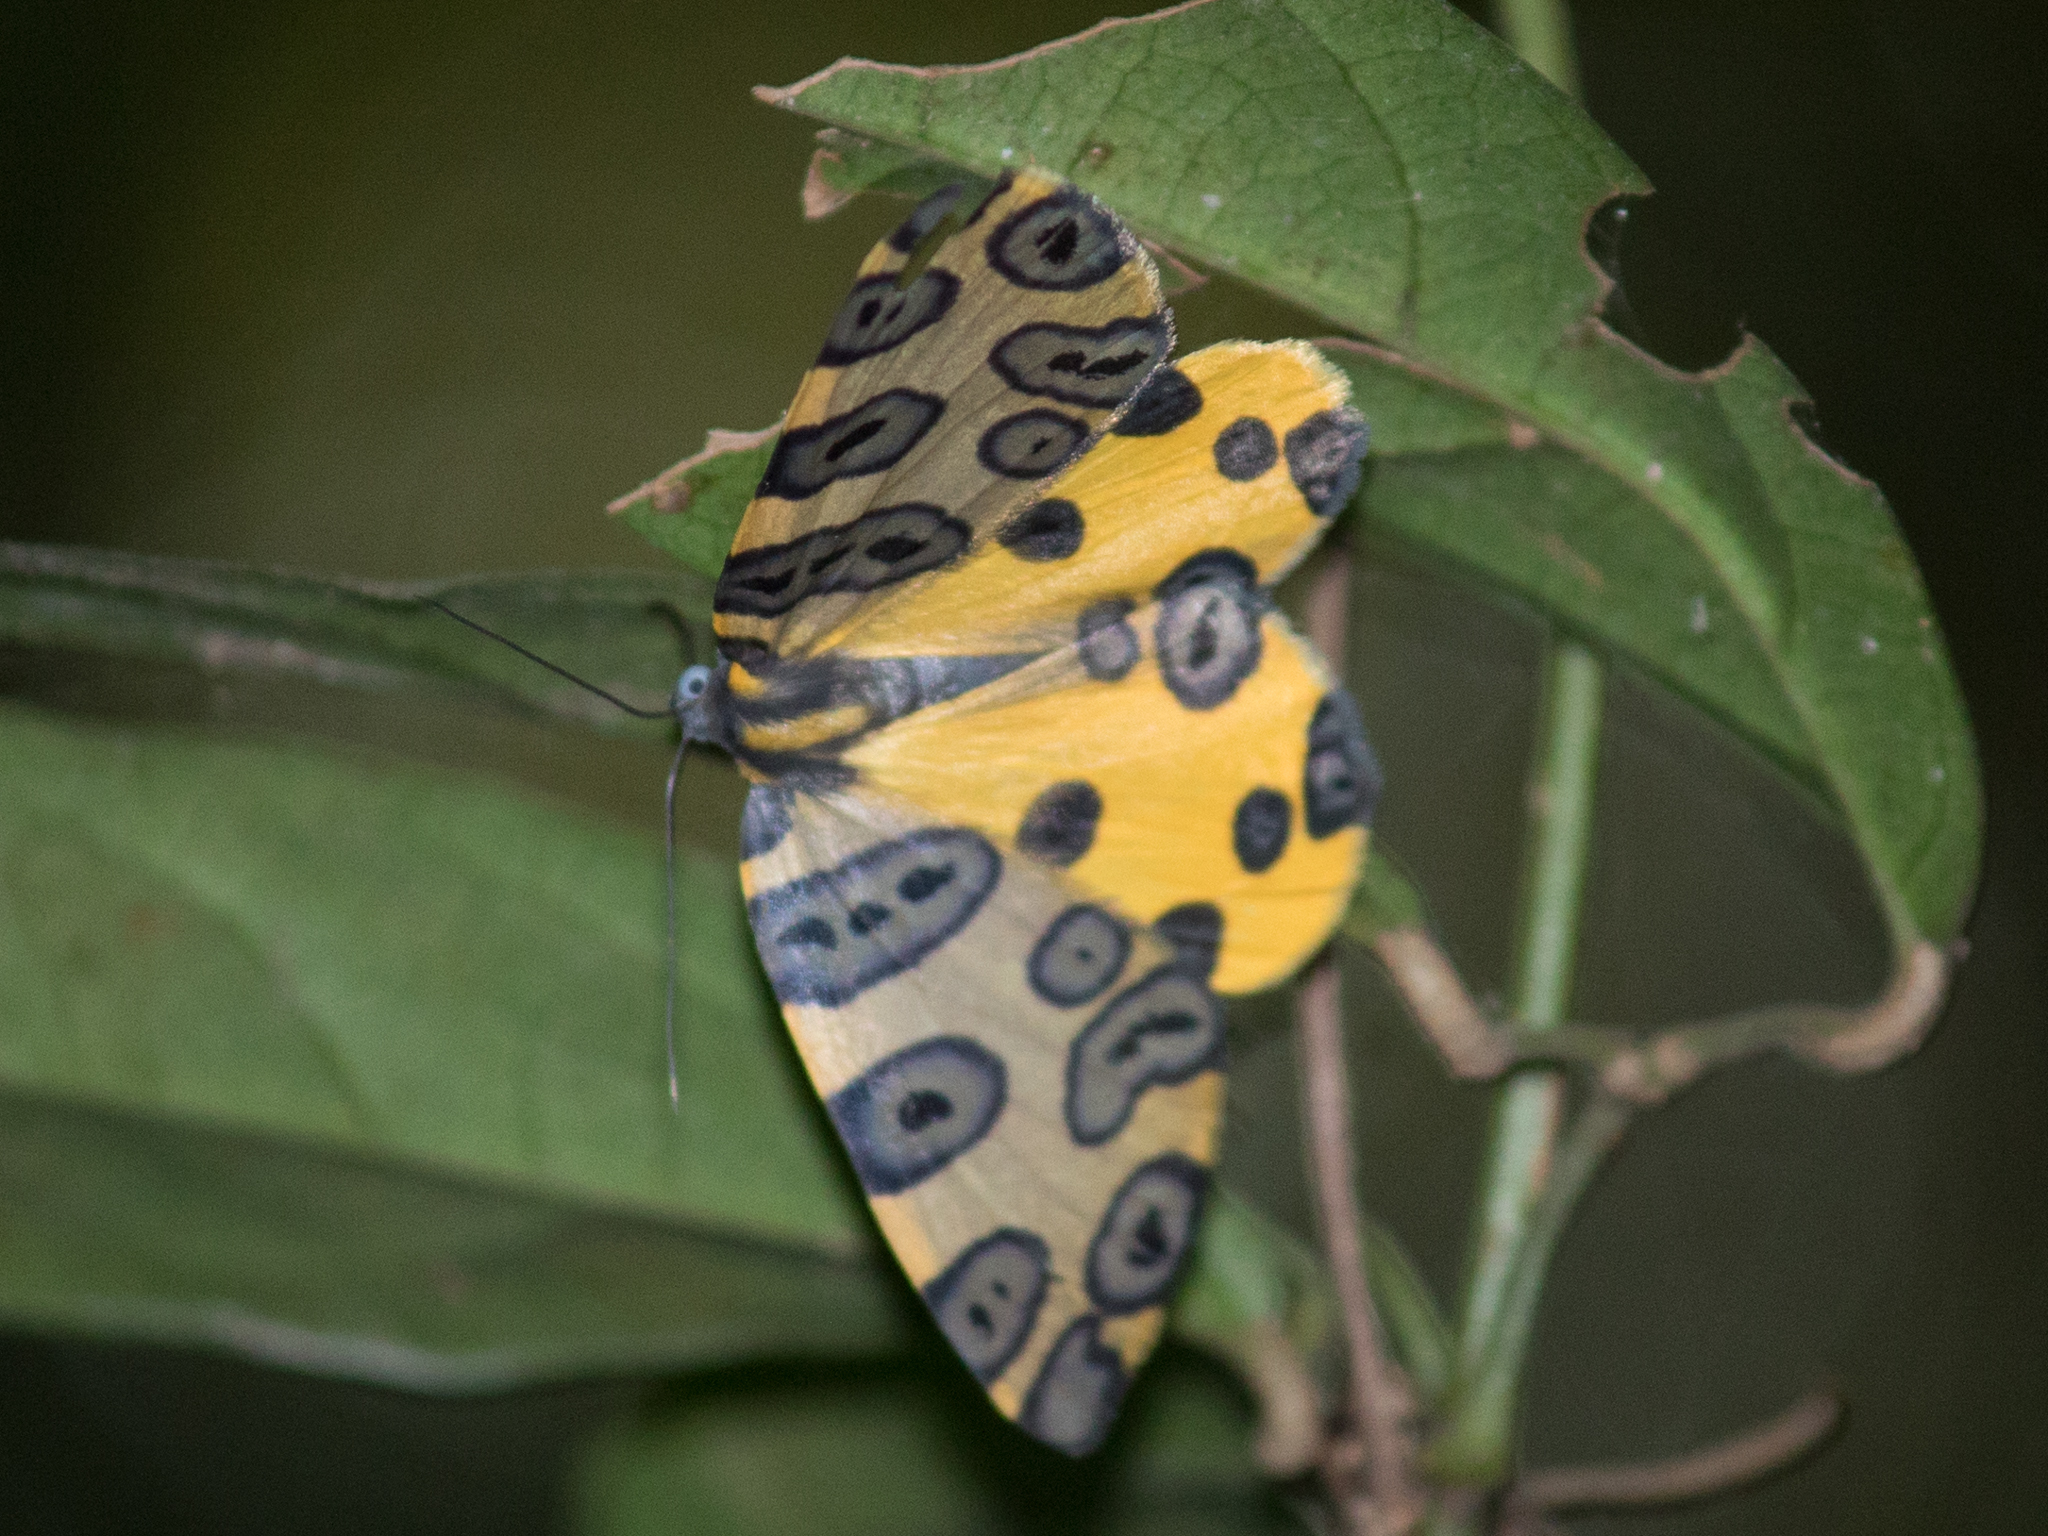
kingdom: Animalia
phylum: Arthropoda
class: Insecta
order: Lepidoptera
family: Geometridae
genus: Pantherodes
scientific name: Pantherodes pardalaria
